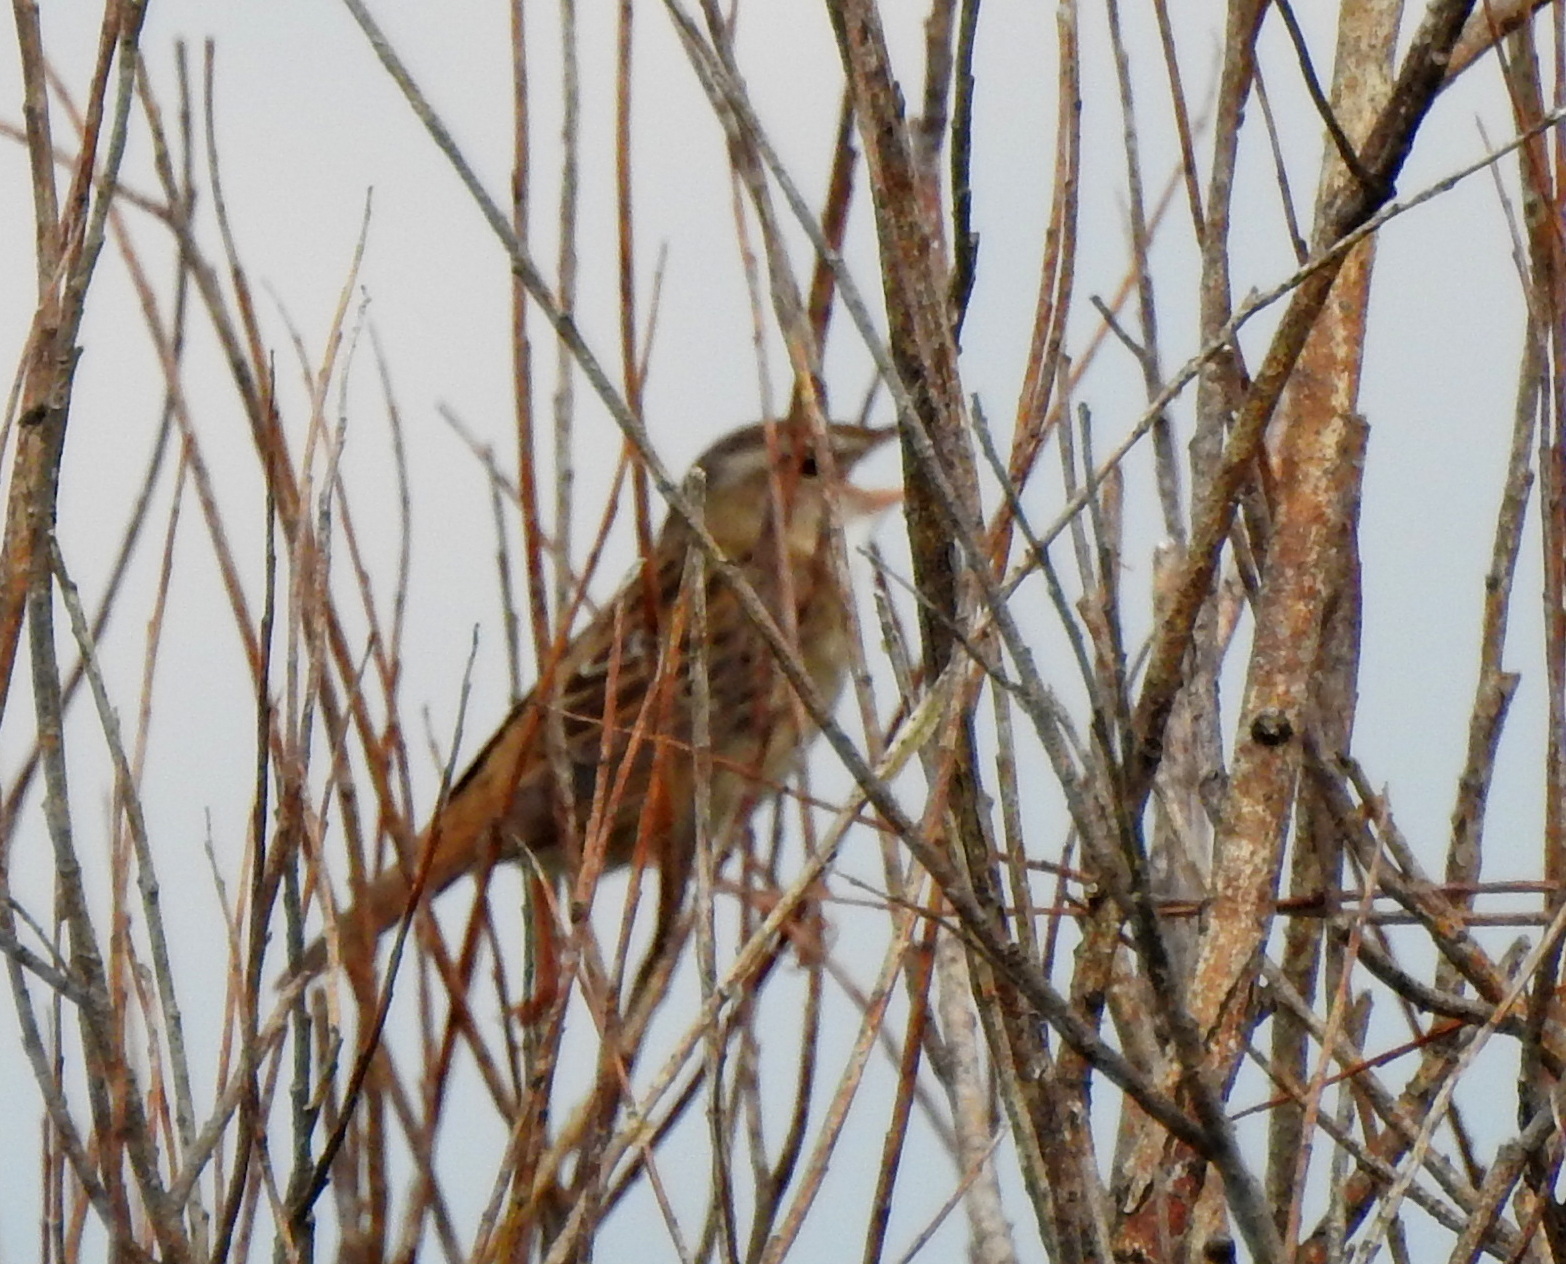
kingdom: Animalia
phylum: Chordata
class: Aves
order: Passeriformes
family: Locustellidae
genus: Locustella
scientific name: Locustella certhiola
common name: Pallas's grasshopper warbler
